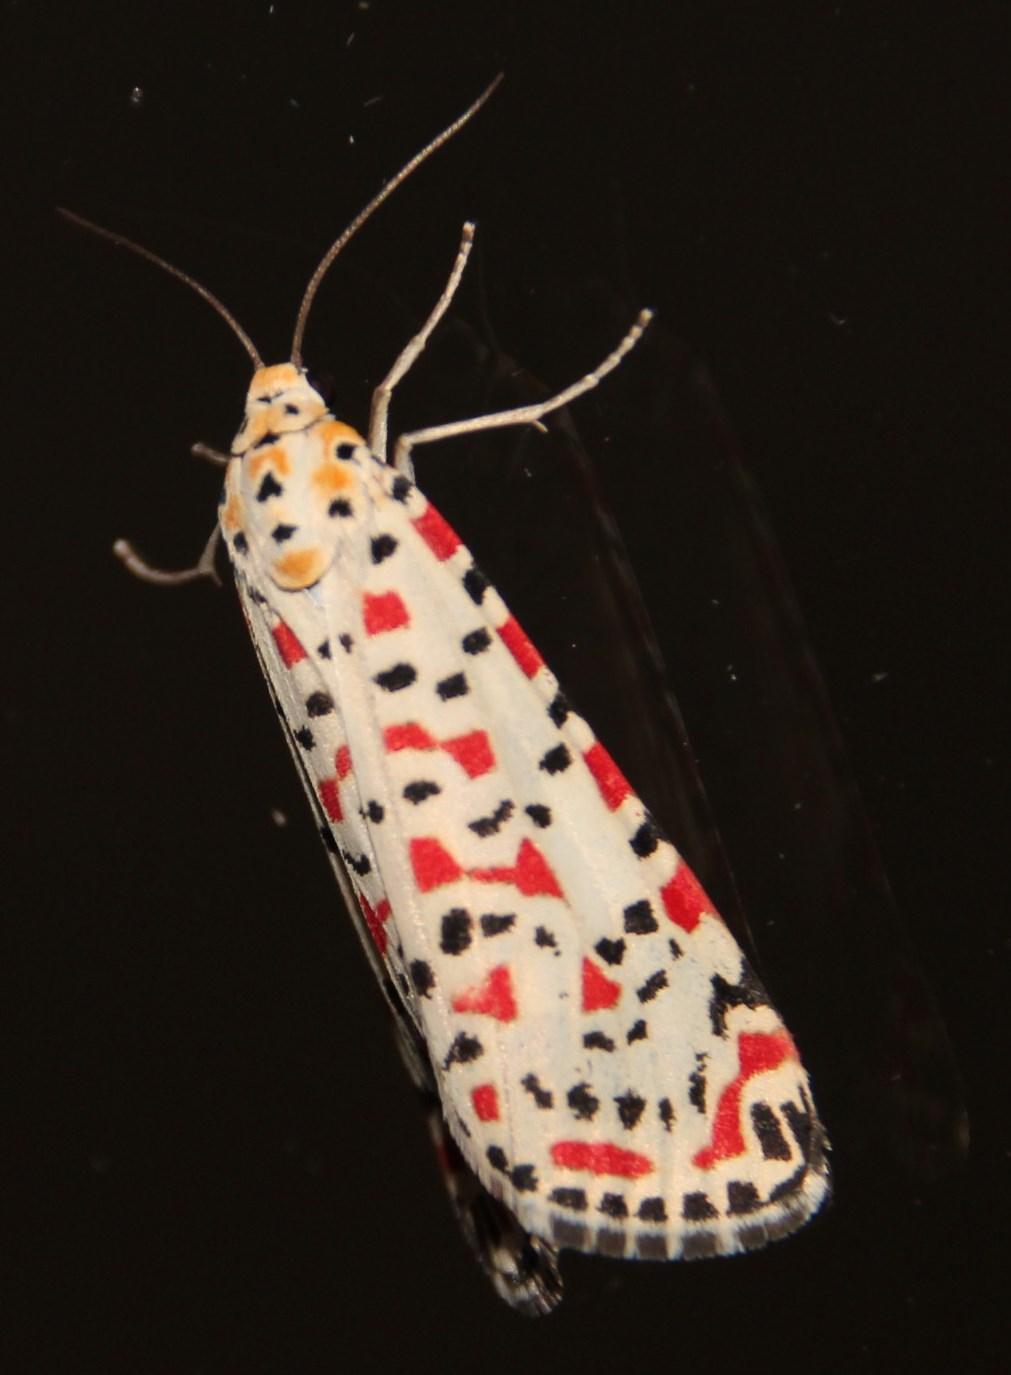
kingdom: Animalia
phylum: Arthropoda
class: Insecta
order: Lepidoptera
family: Erebidae
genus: Utetheisa
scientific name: Utetheisa pulchella
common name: Crimson speckled
